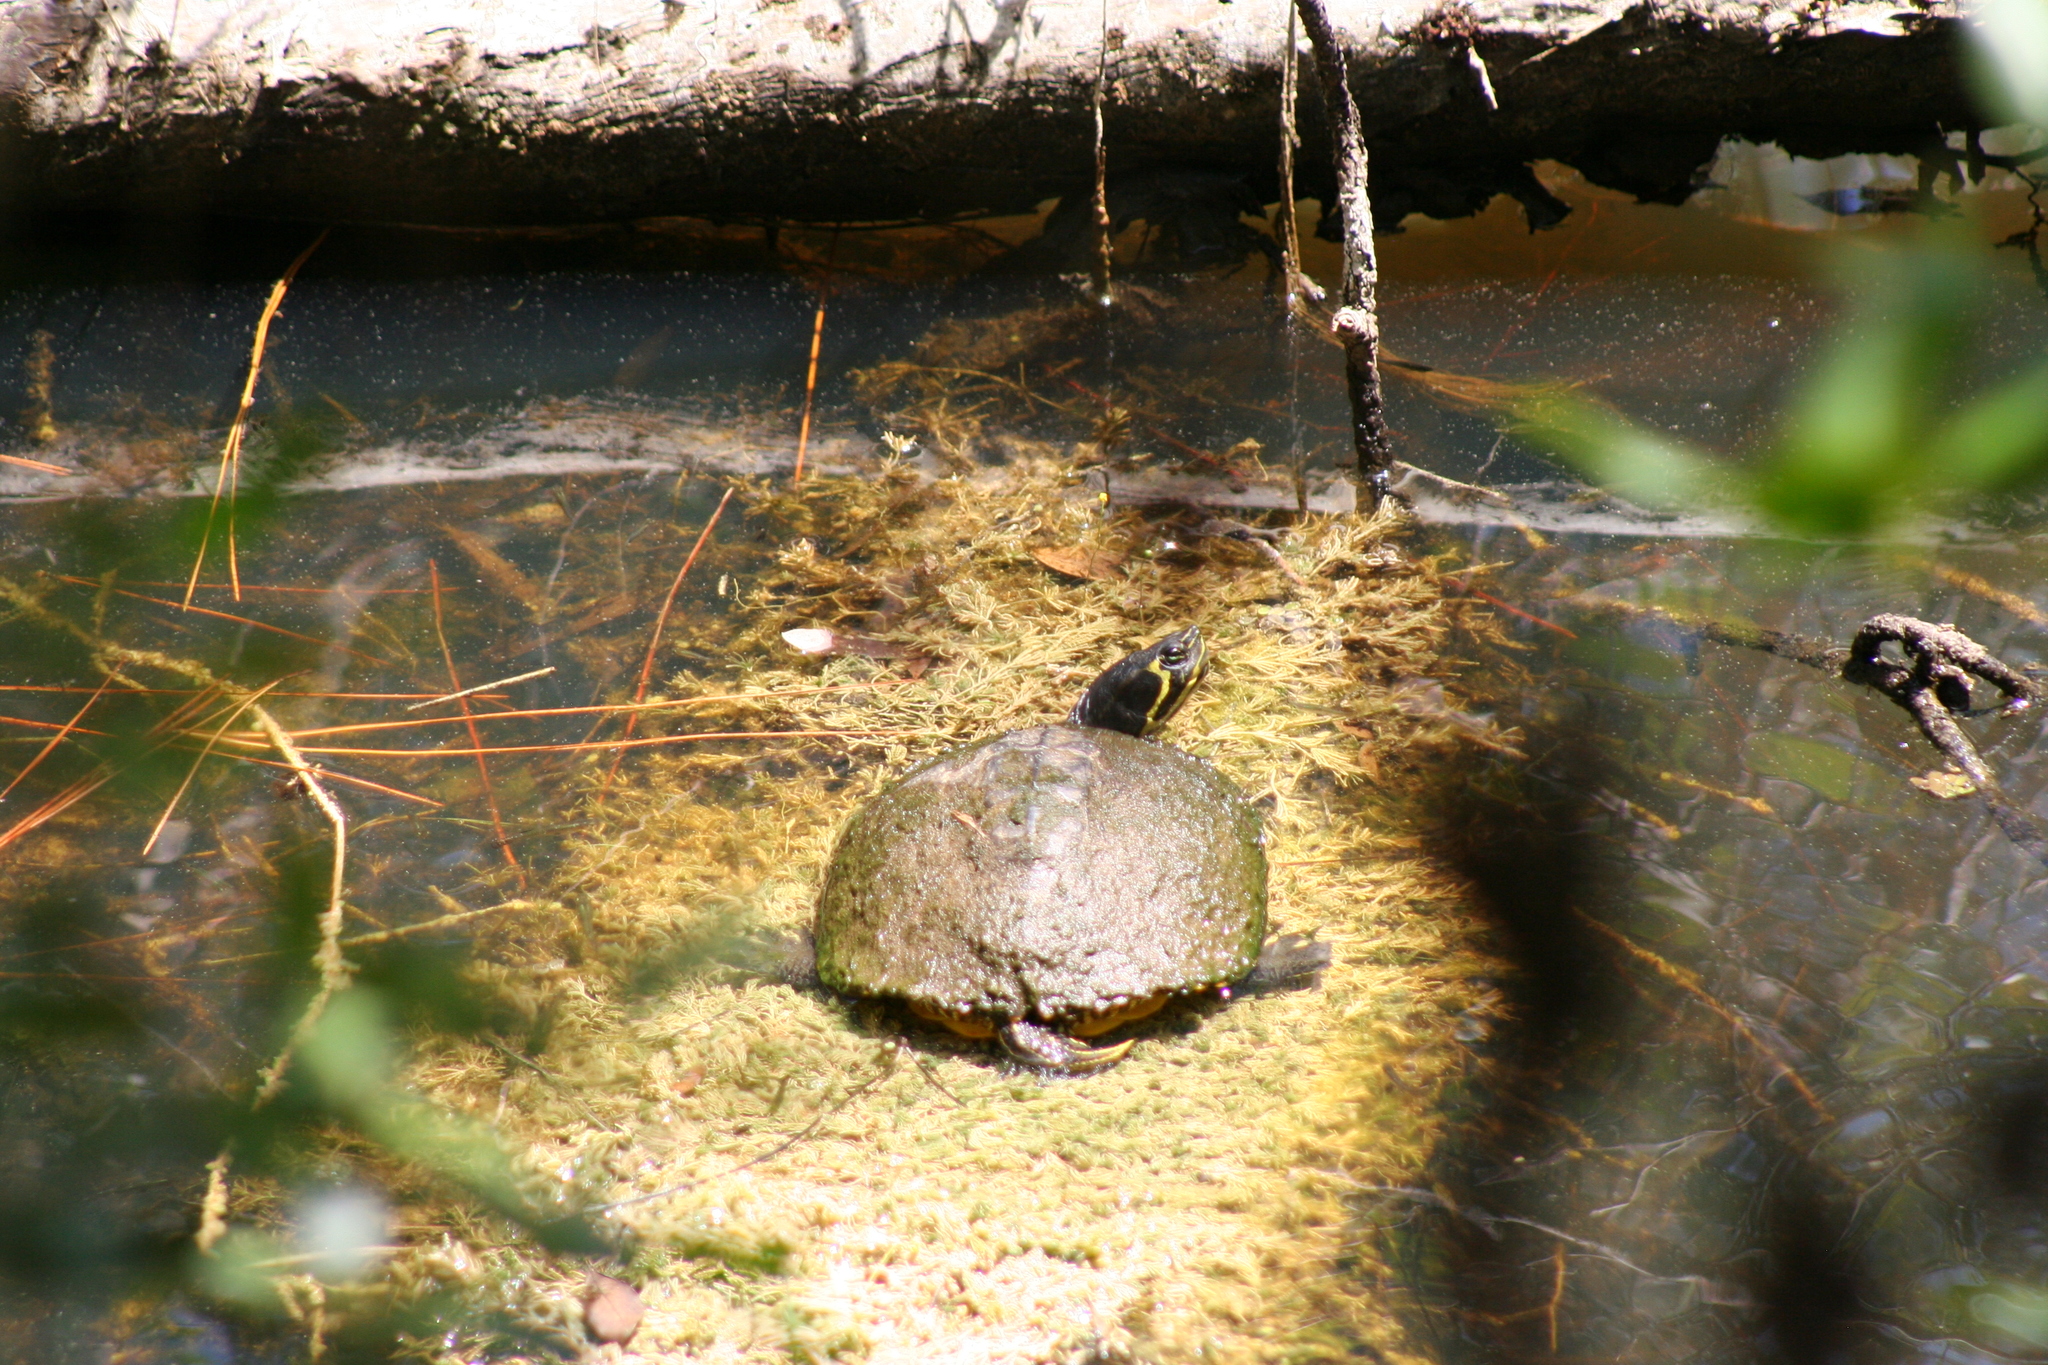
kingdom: Animalia
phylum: Chordata
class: Testudines
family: Emydidae
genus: Trachemys
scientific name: Trachemys scripta
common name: Slider
